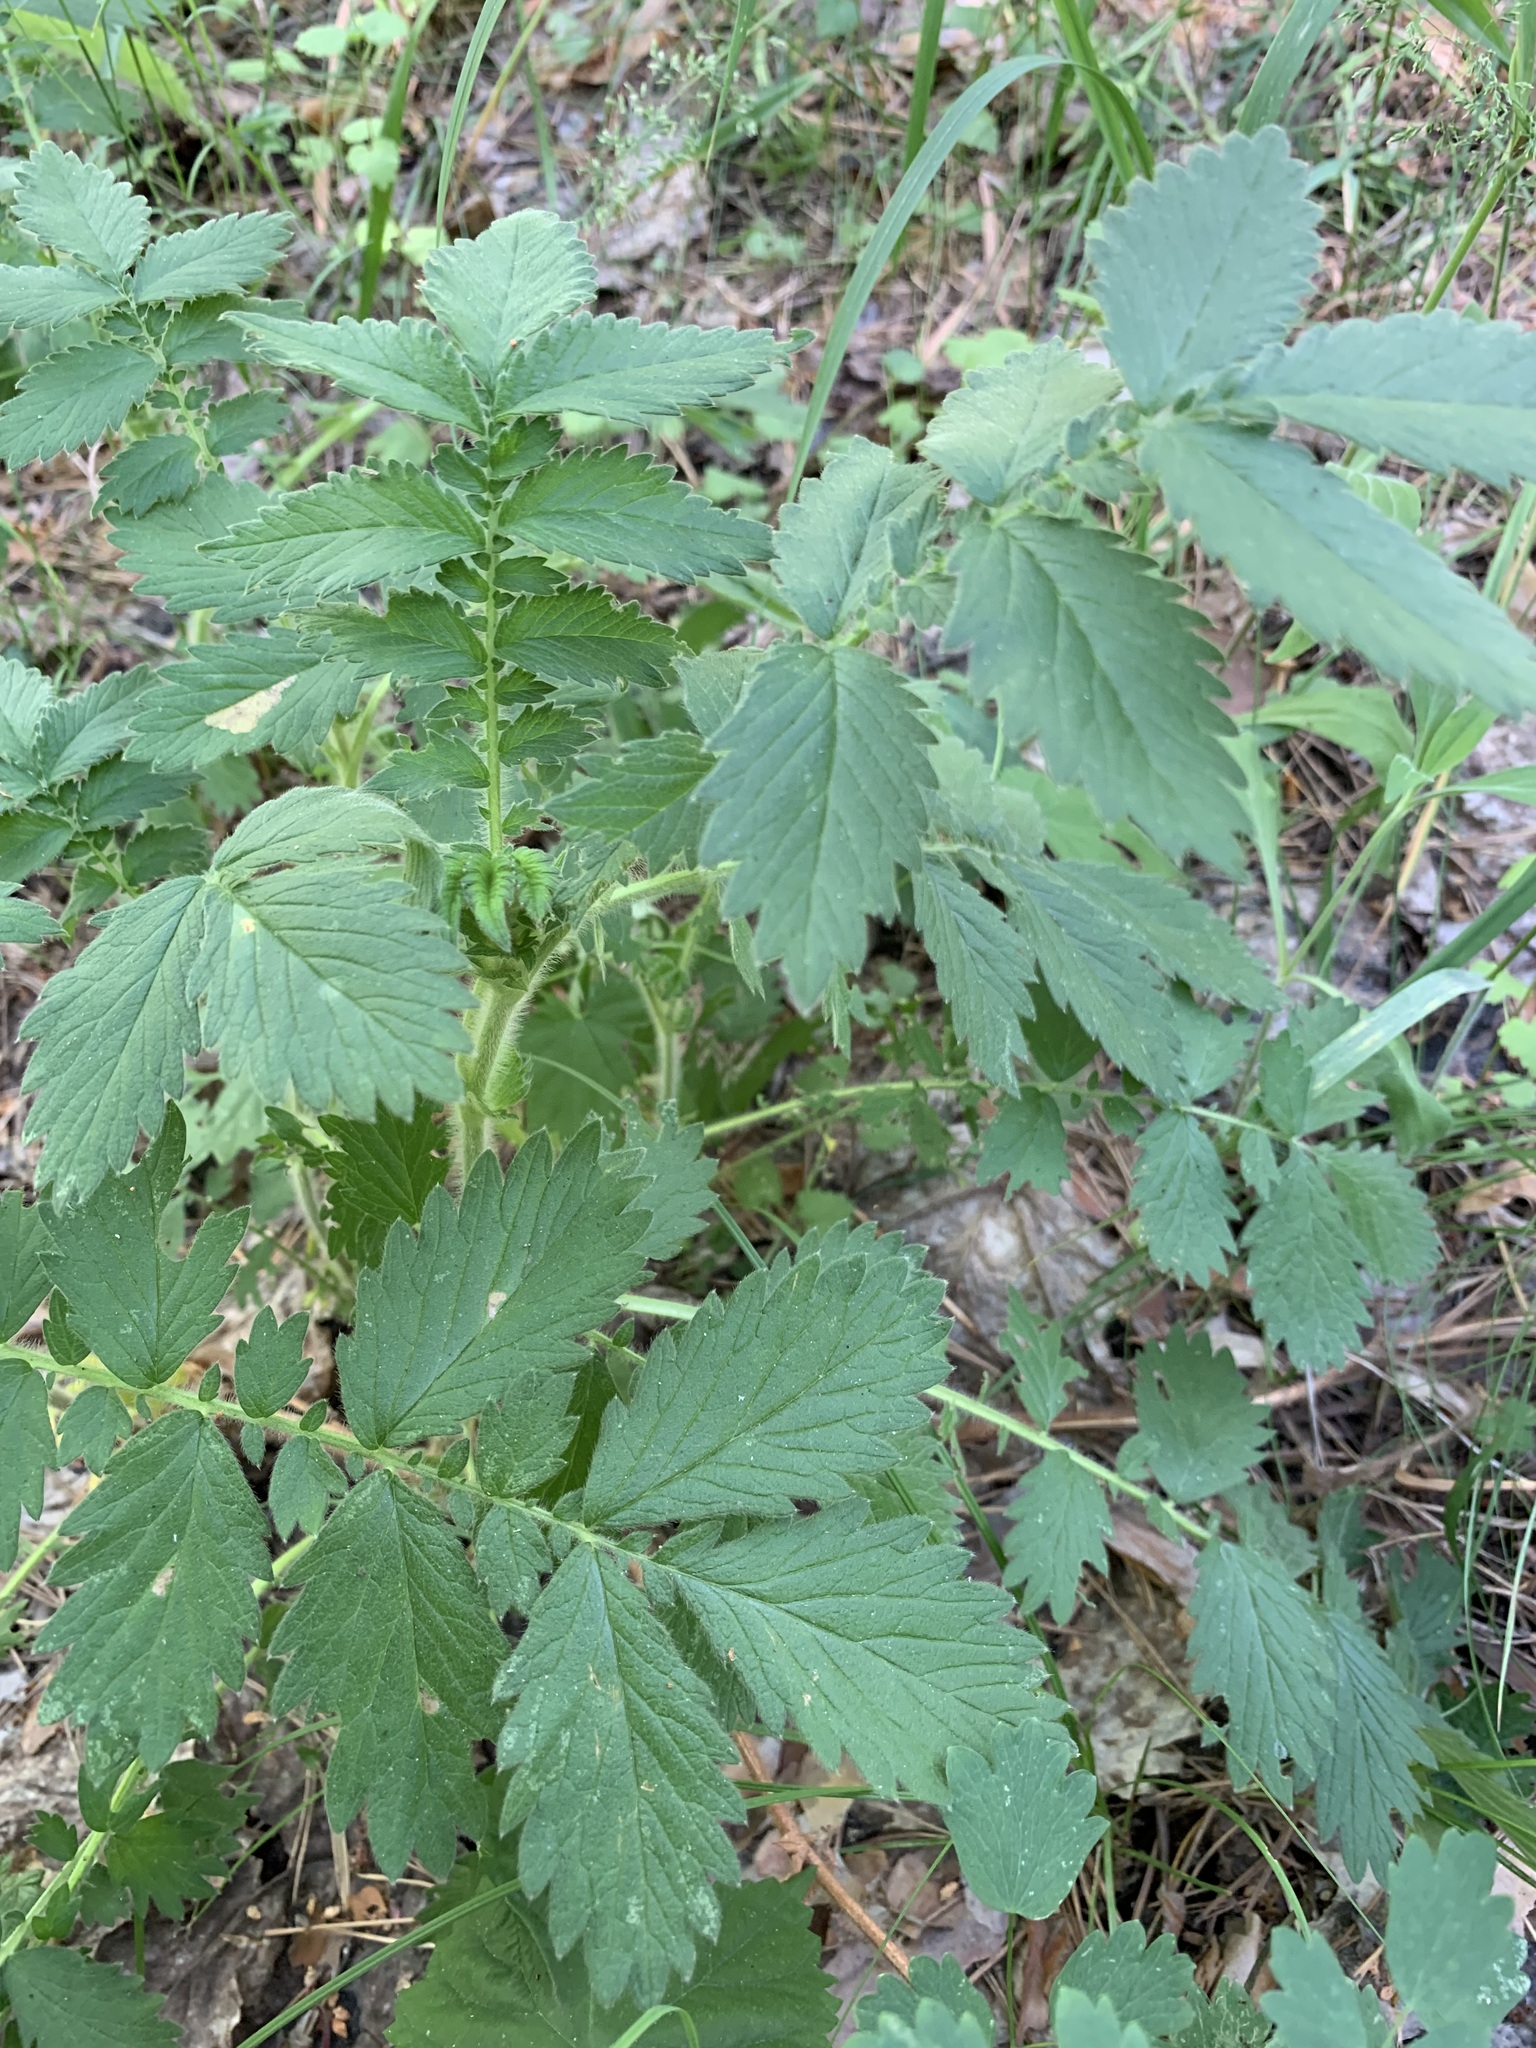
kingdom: Plantae
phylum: Tracheophyta
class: Magnoliopsida
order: Rosales
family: Rosaceae
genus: Agrimonia
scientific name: Agrimonia eupatoria
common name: Agrimony
